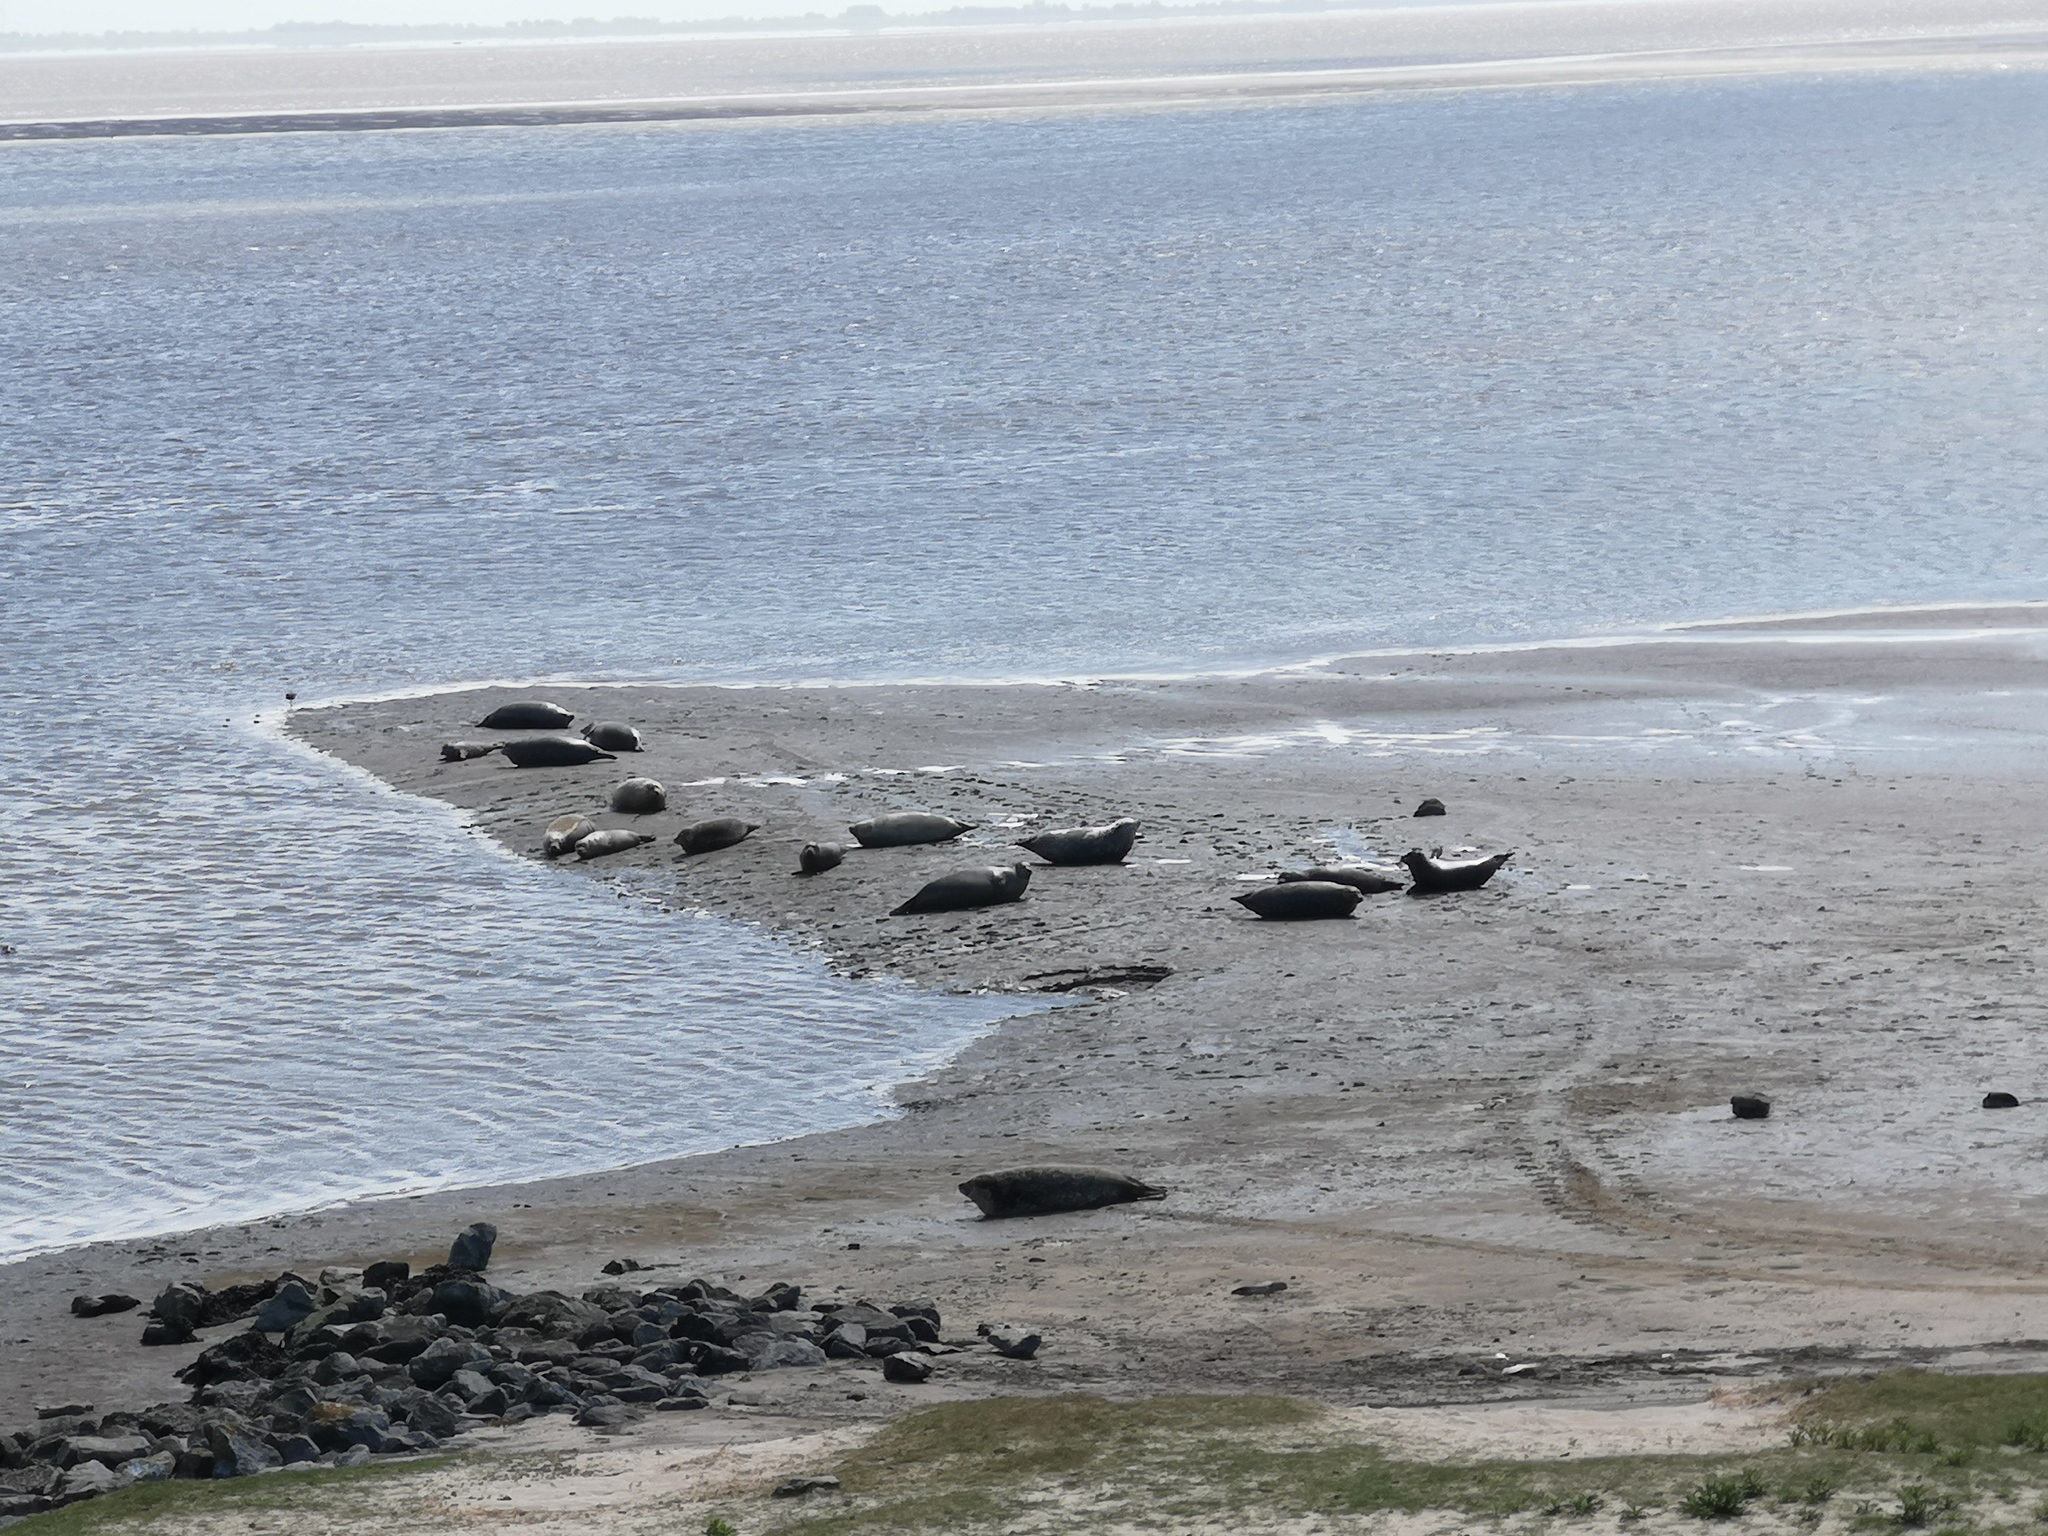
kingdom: Animalia
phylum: Chordata
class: Mammalia
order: Carnivora
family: Phocidae
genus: Phoca
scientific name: Phoca vitulina
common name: Harbor seal
